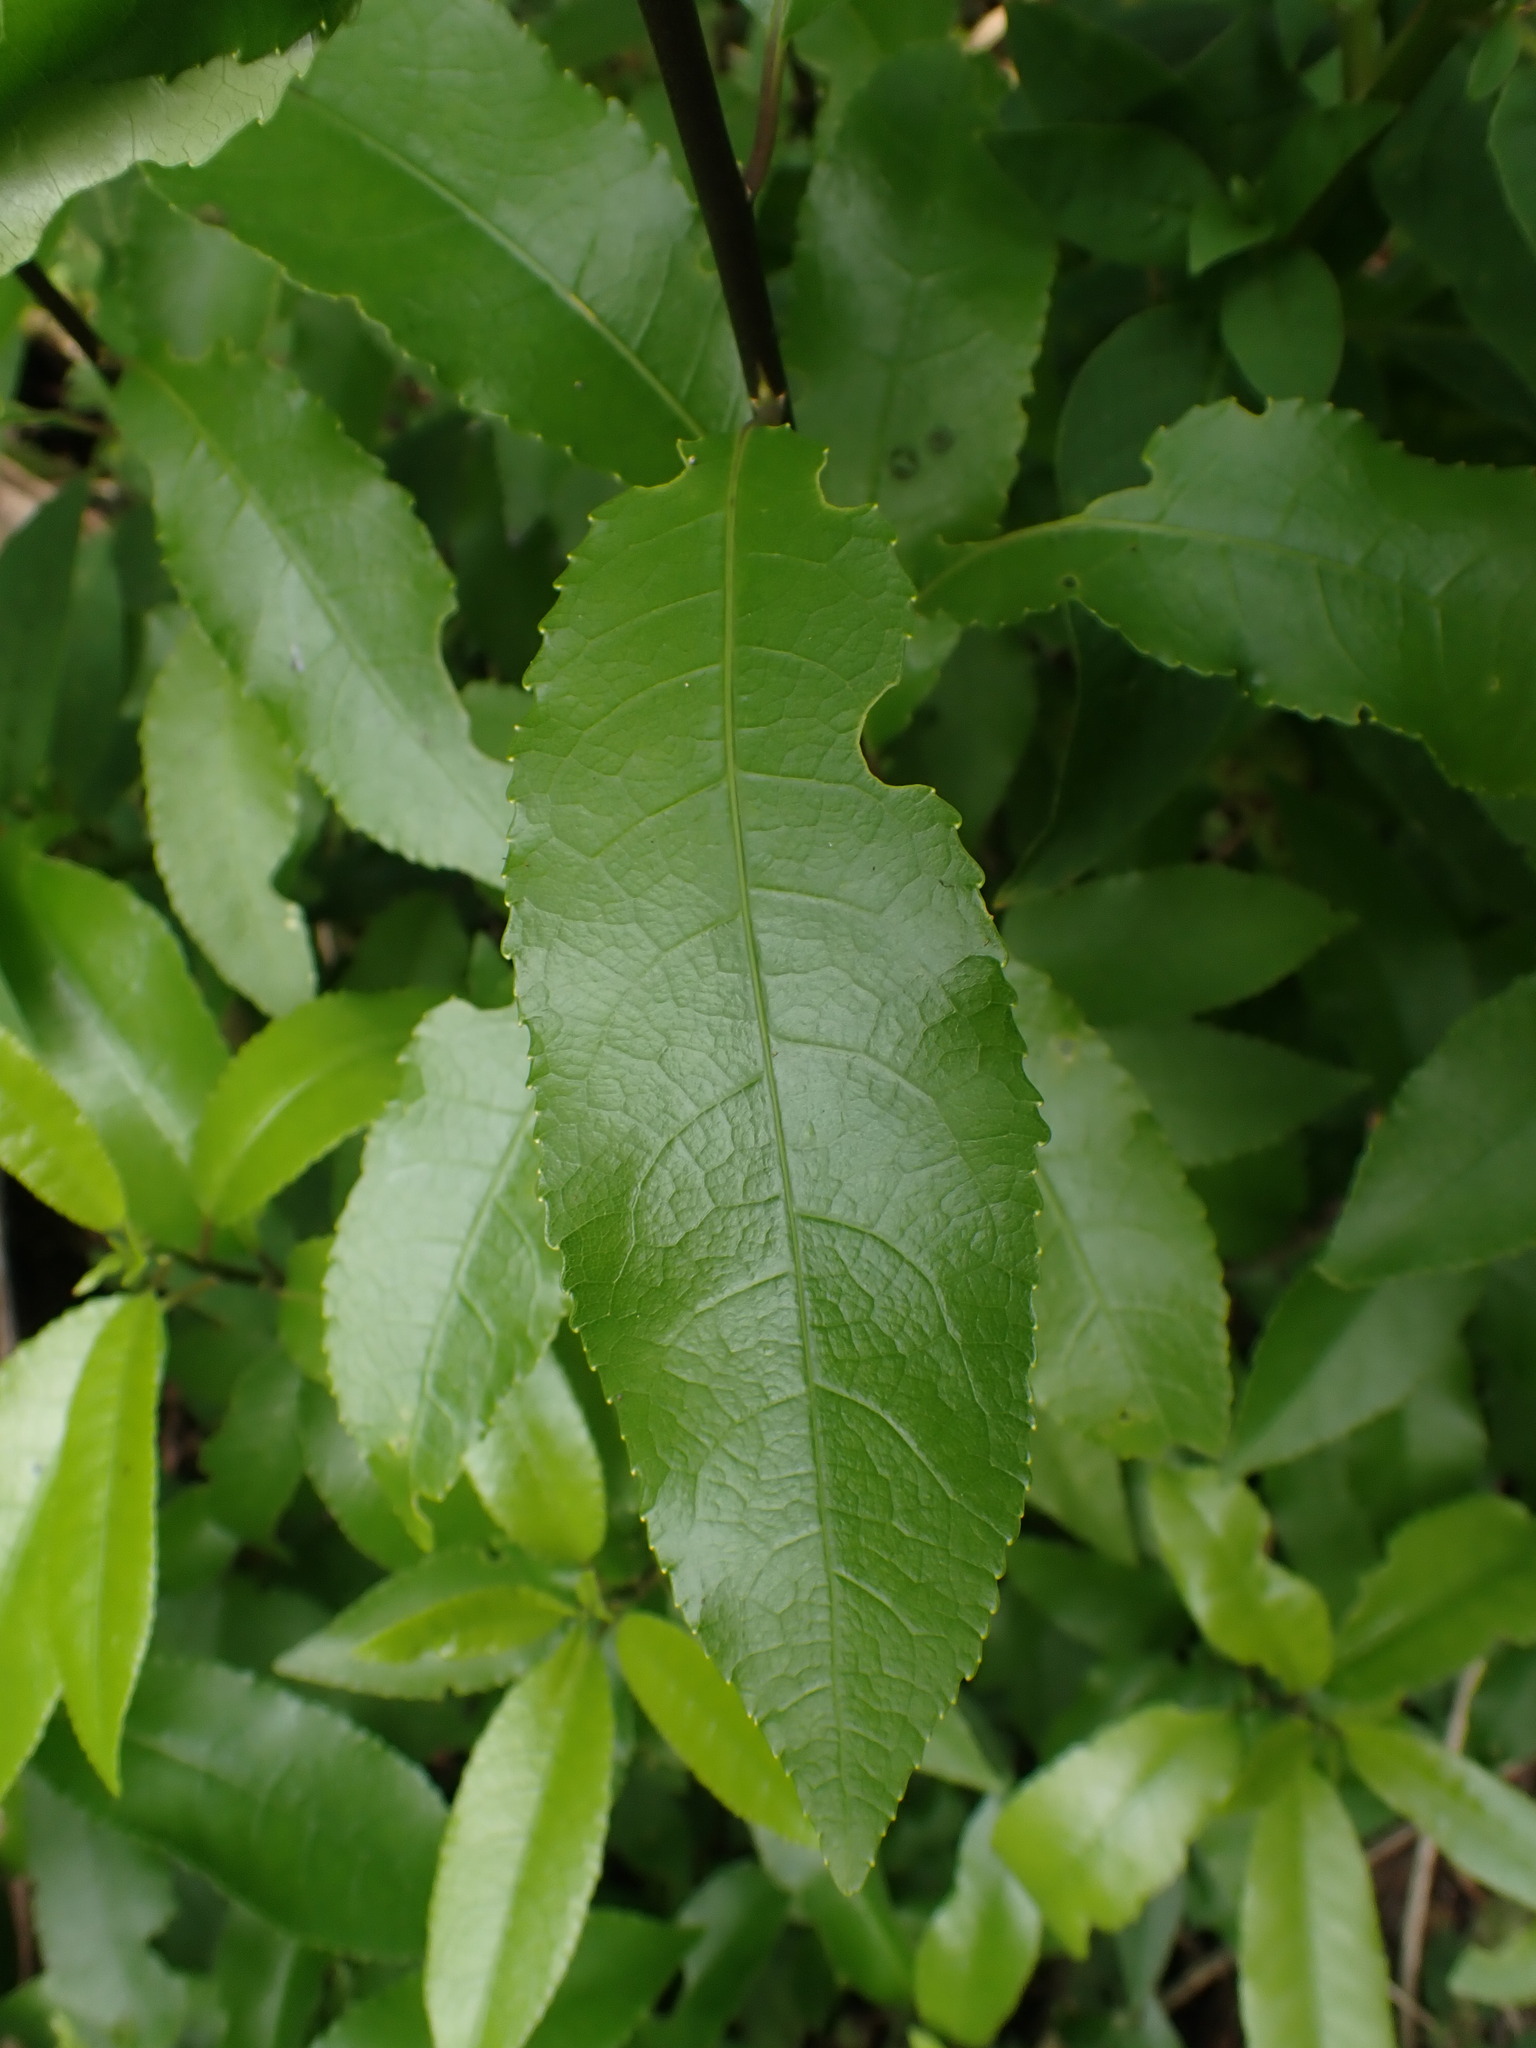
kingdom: Plantae
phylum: Tracheophyta
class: Magnoliopsida
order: Malpighiales
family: Violaceae
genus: Melicytus
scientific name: Melicytus ramiflorus
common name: Mahoe
